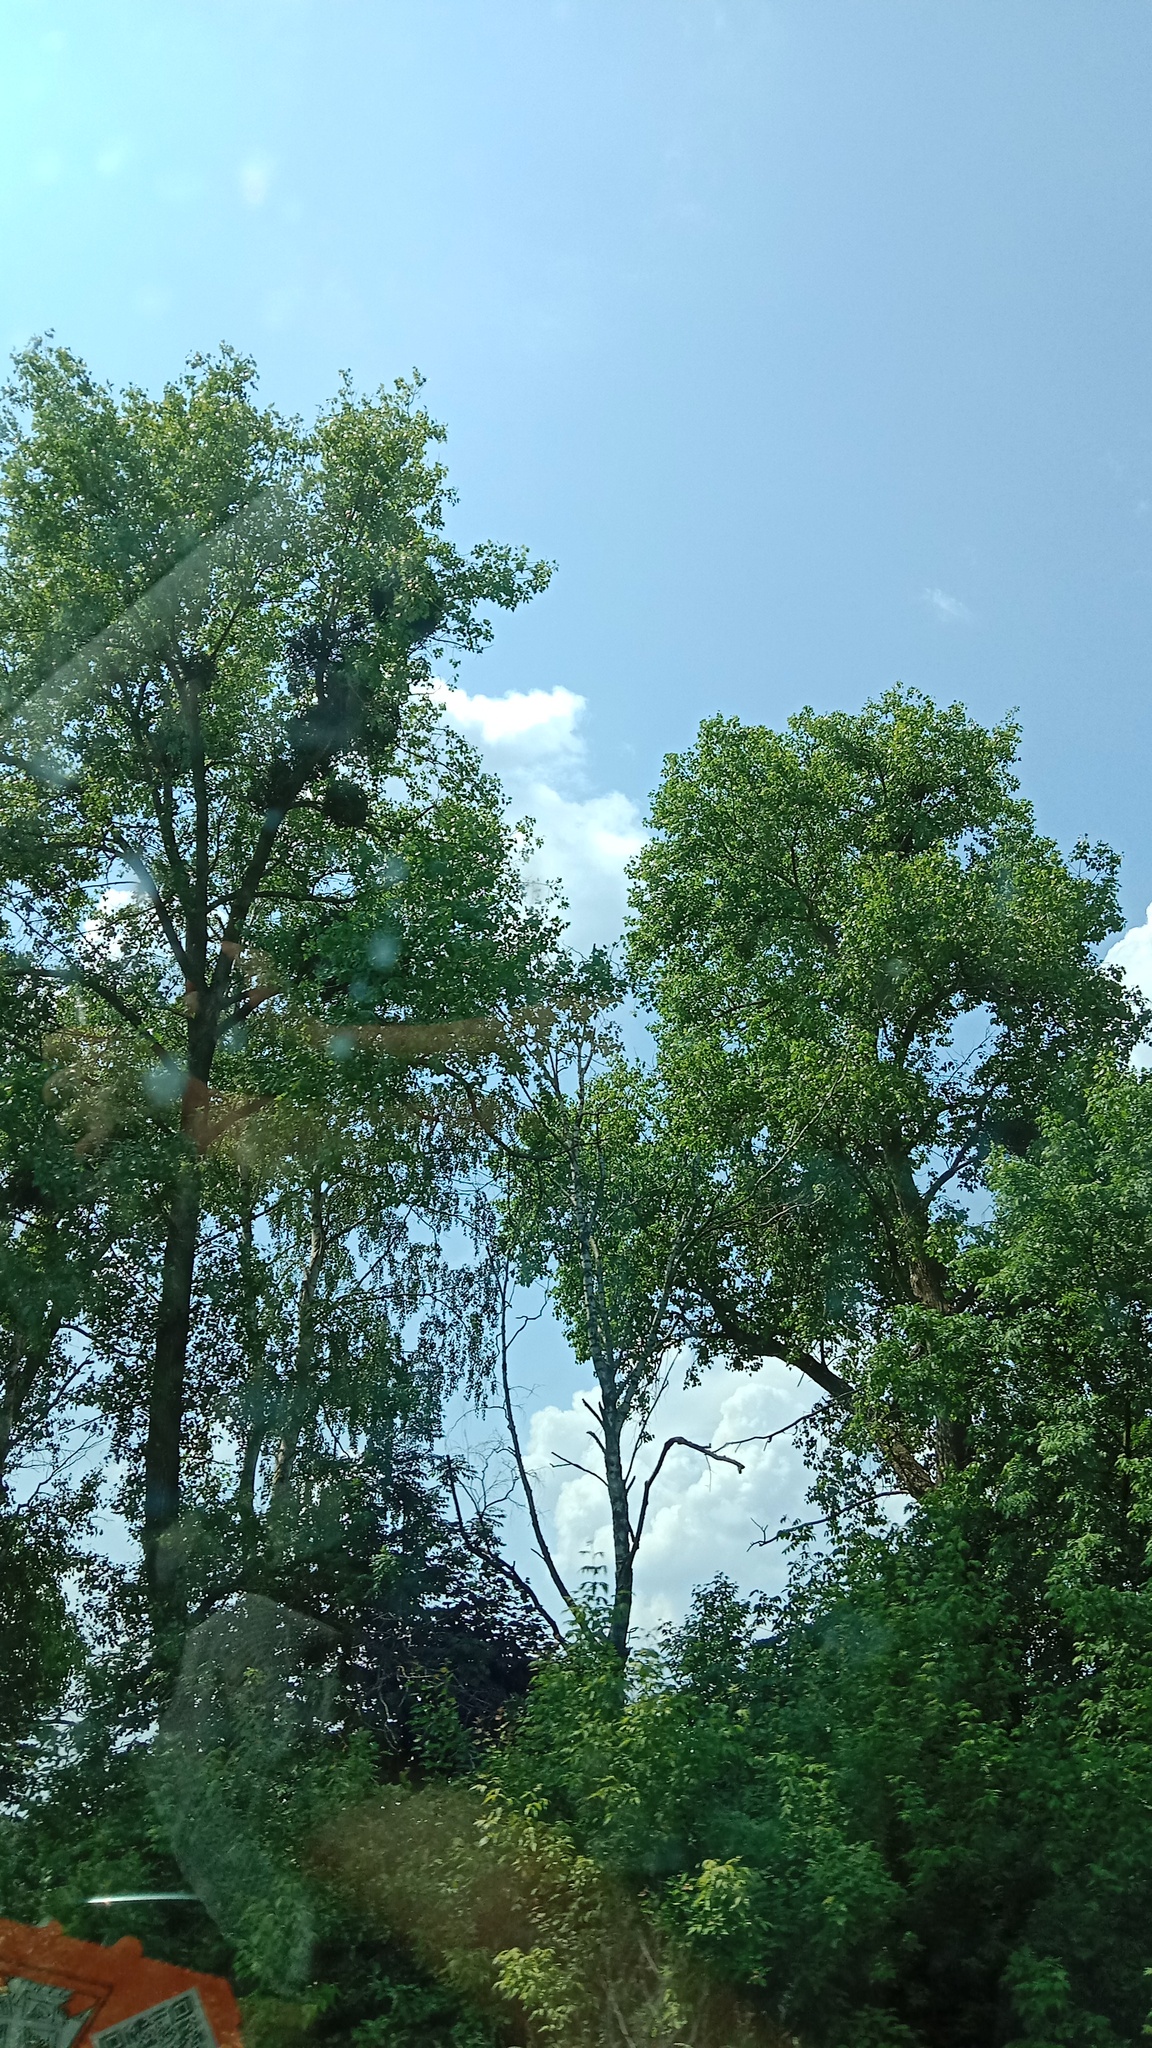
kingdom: Plantae
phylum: Tracheophyta
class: Magnoliopsida
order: Santalales
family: Viscaceae
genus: Viscum
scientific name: Viscum album
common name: Mistletoe
